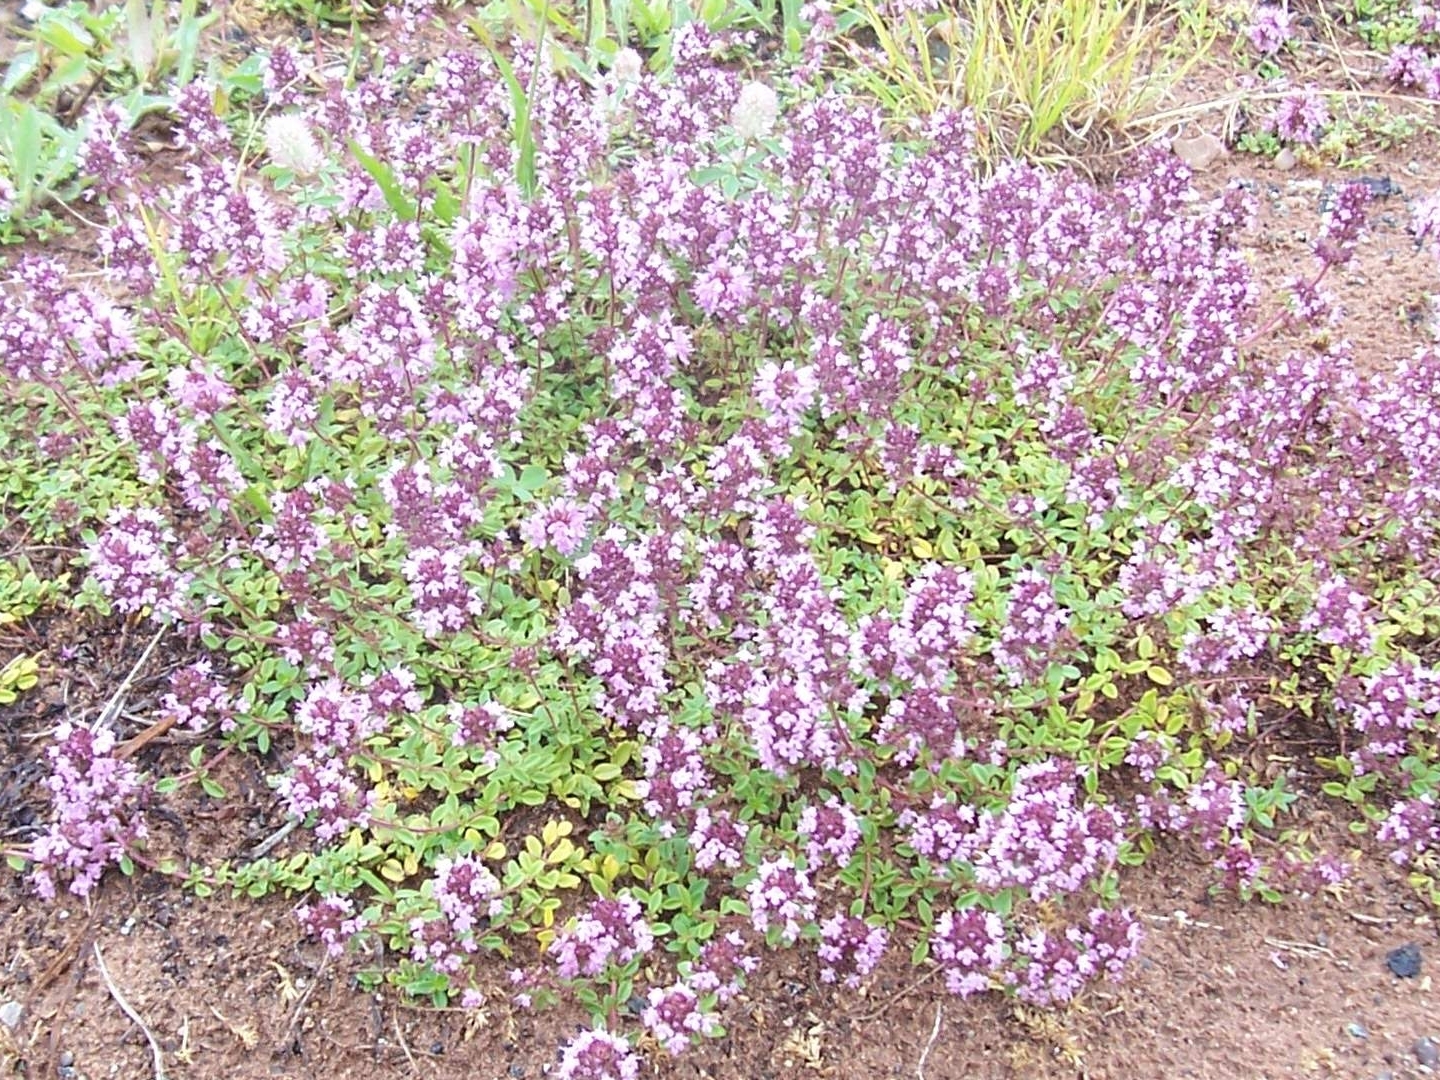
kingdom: Plantae
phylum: Tracheophyta
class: Magnoliopsida
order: Lamiales
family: Lamiaceae
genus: Thymus
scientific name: Thymus pulegioides
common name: Large thyme
